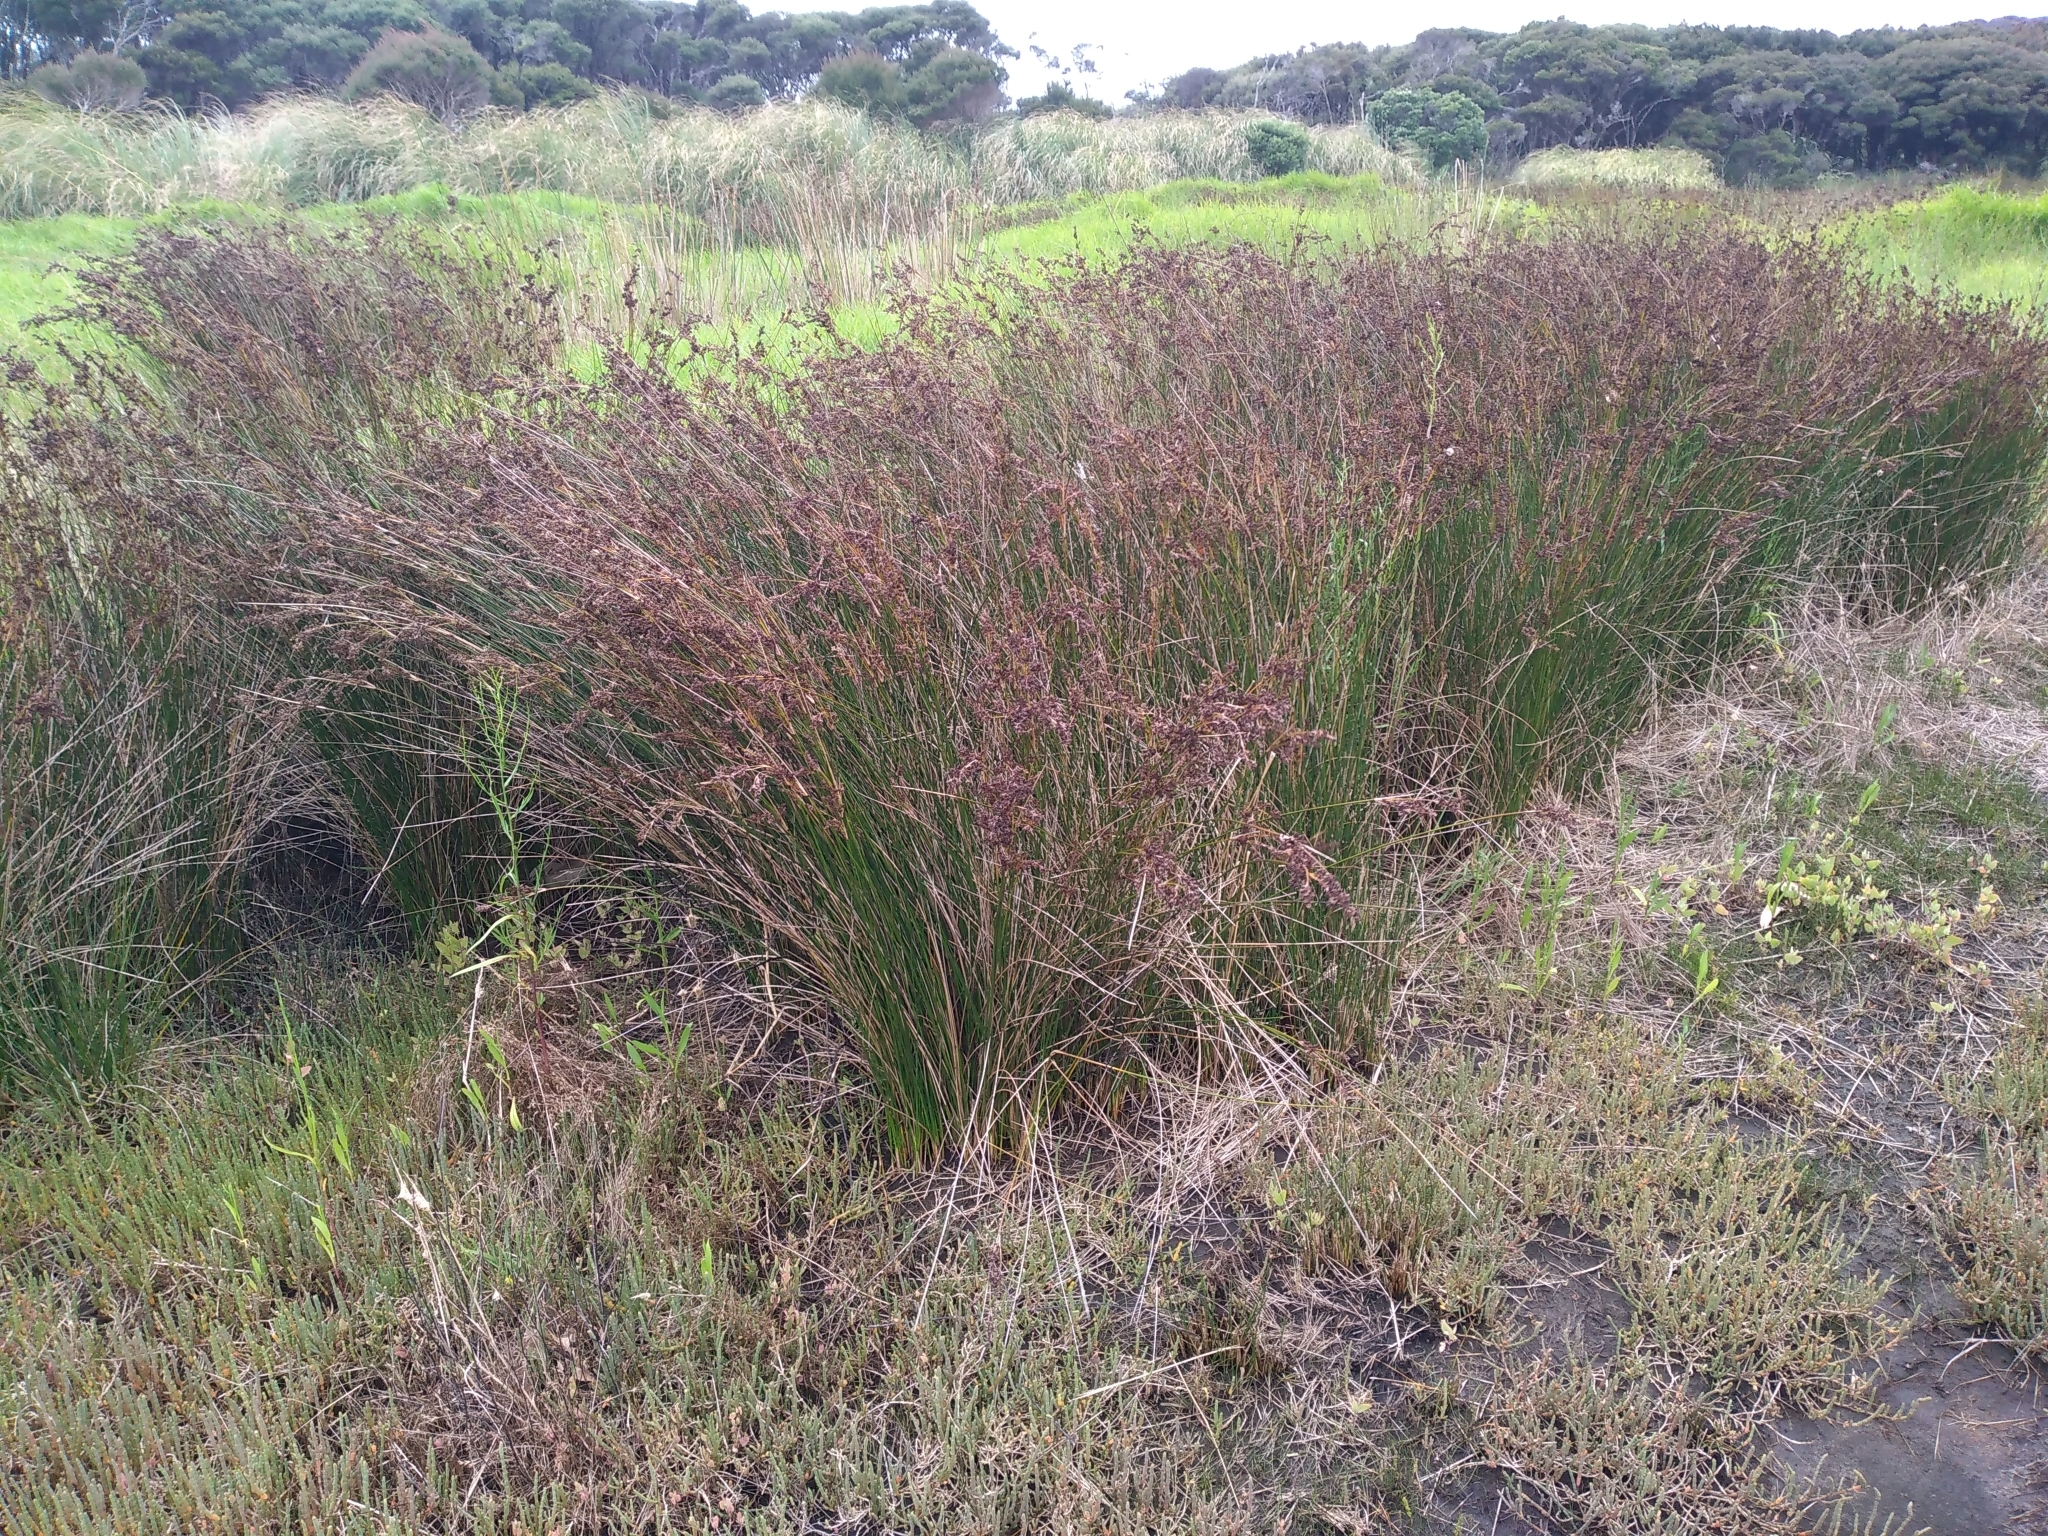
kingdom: Plantae
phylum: Tracheophyta
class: Liliopsida
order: Poales
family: Juncaceae
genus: Juncus
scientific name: Juncus kraussii
